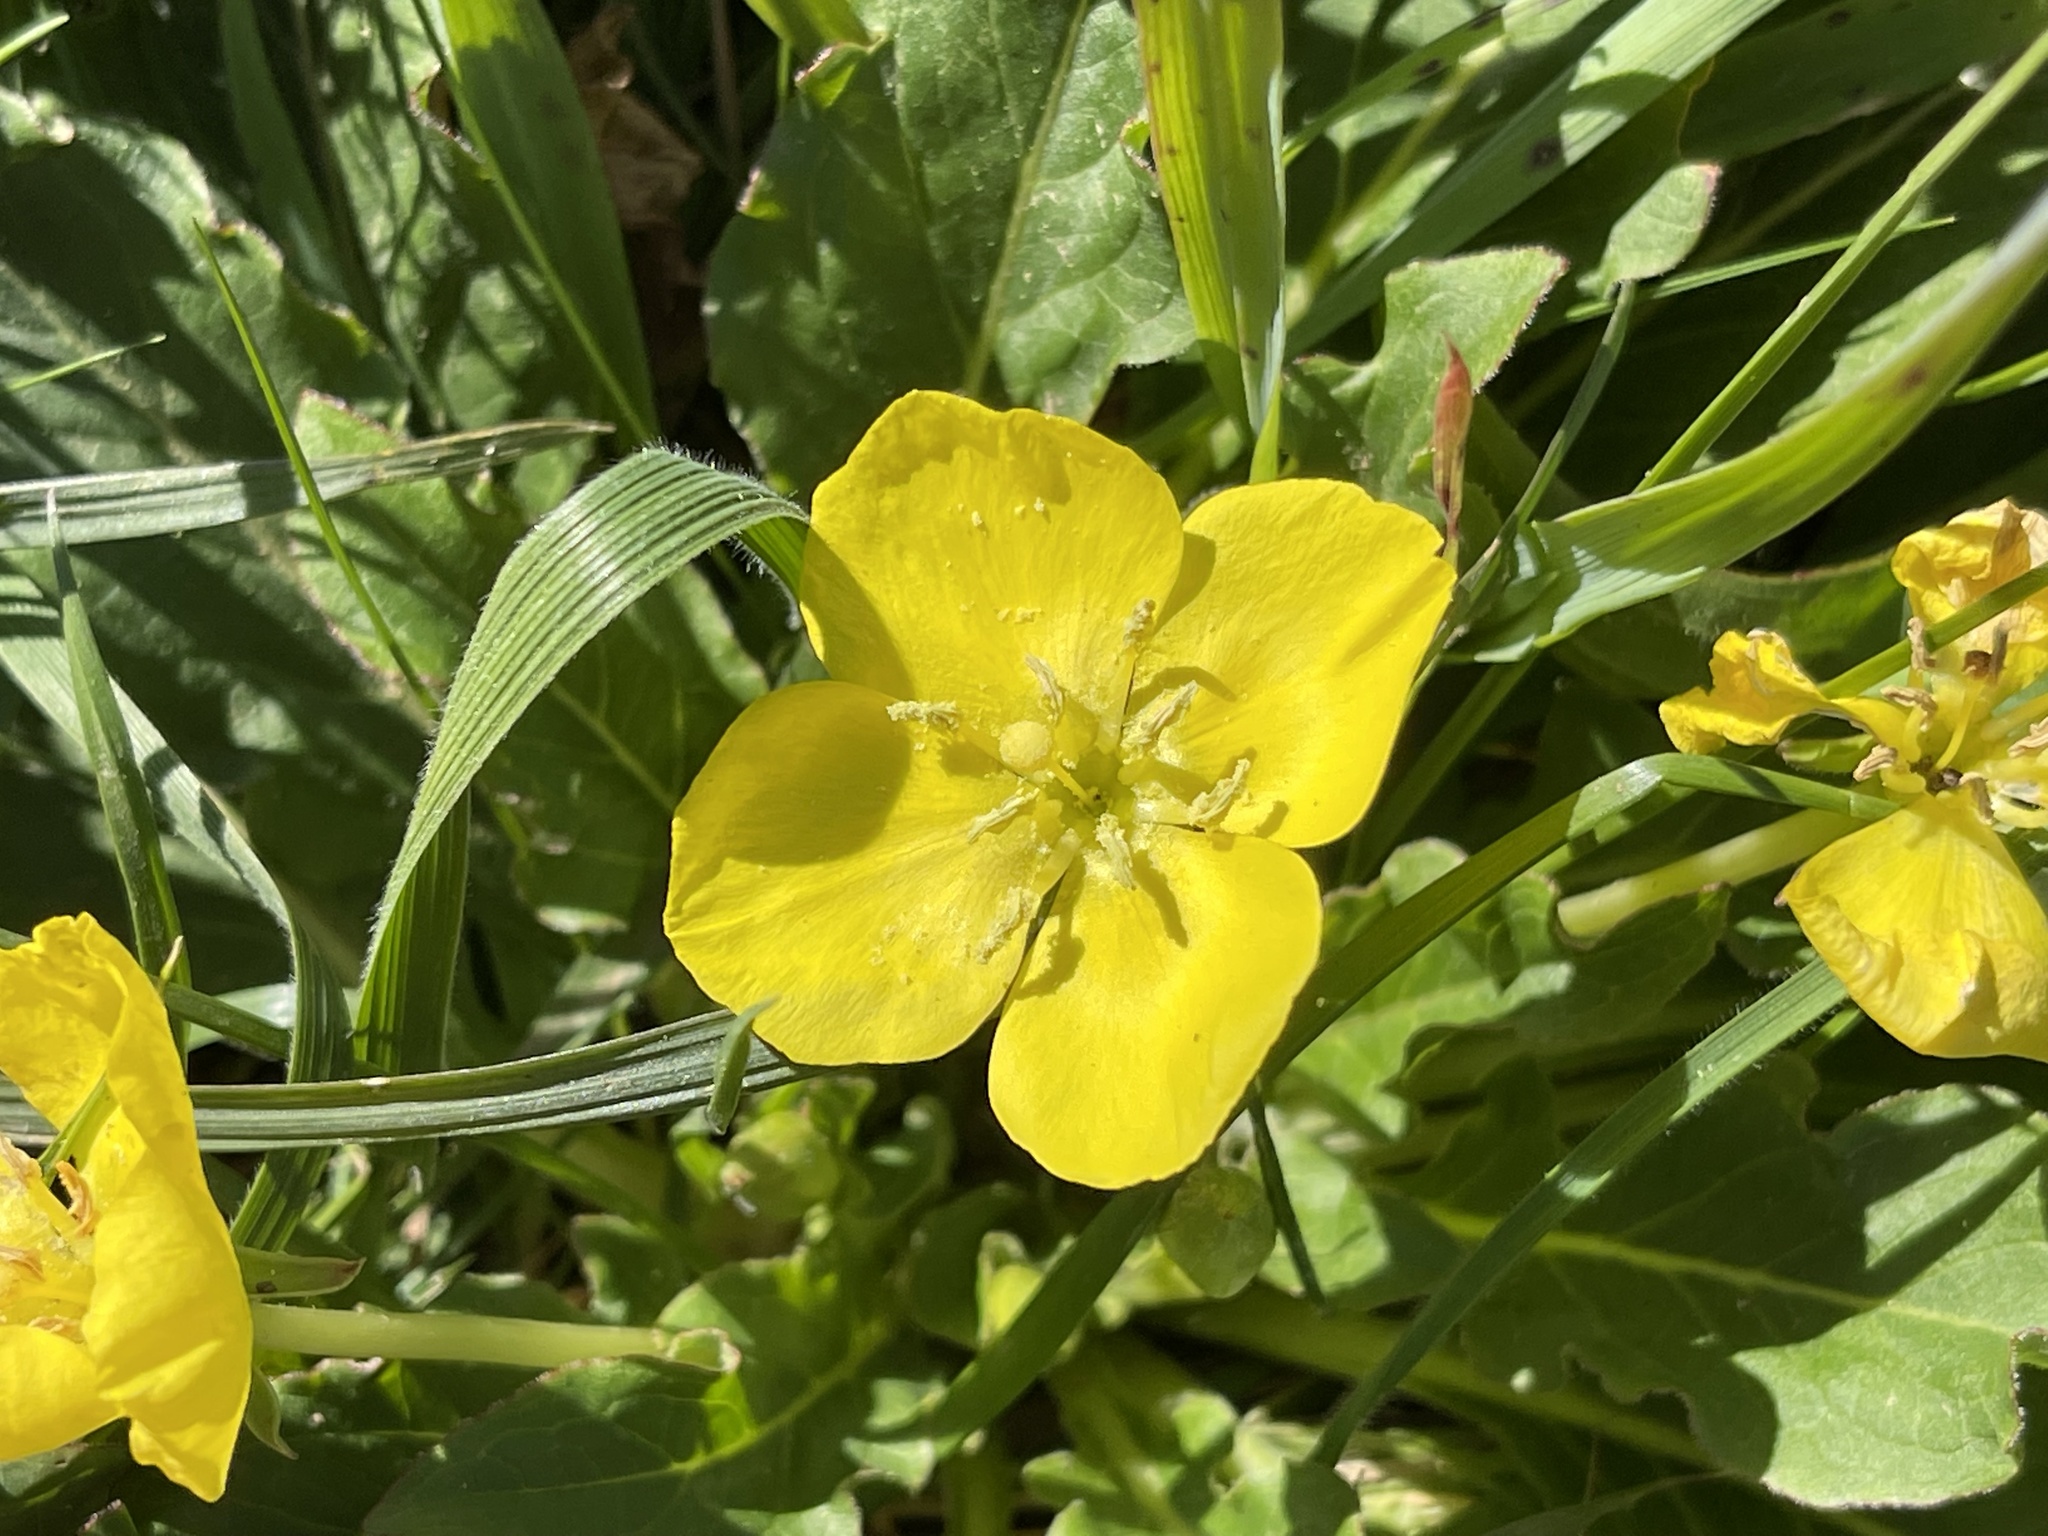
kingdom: Plantae
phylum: Tracheophyta
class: Magnoliopsida
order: Myrtales
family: Onagraceae
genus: Taraxia
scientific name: Taraxia ovata
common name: Goldeneggs
